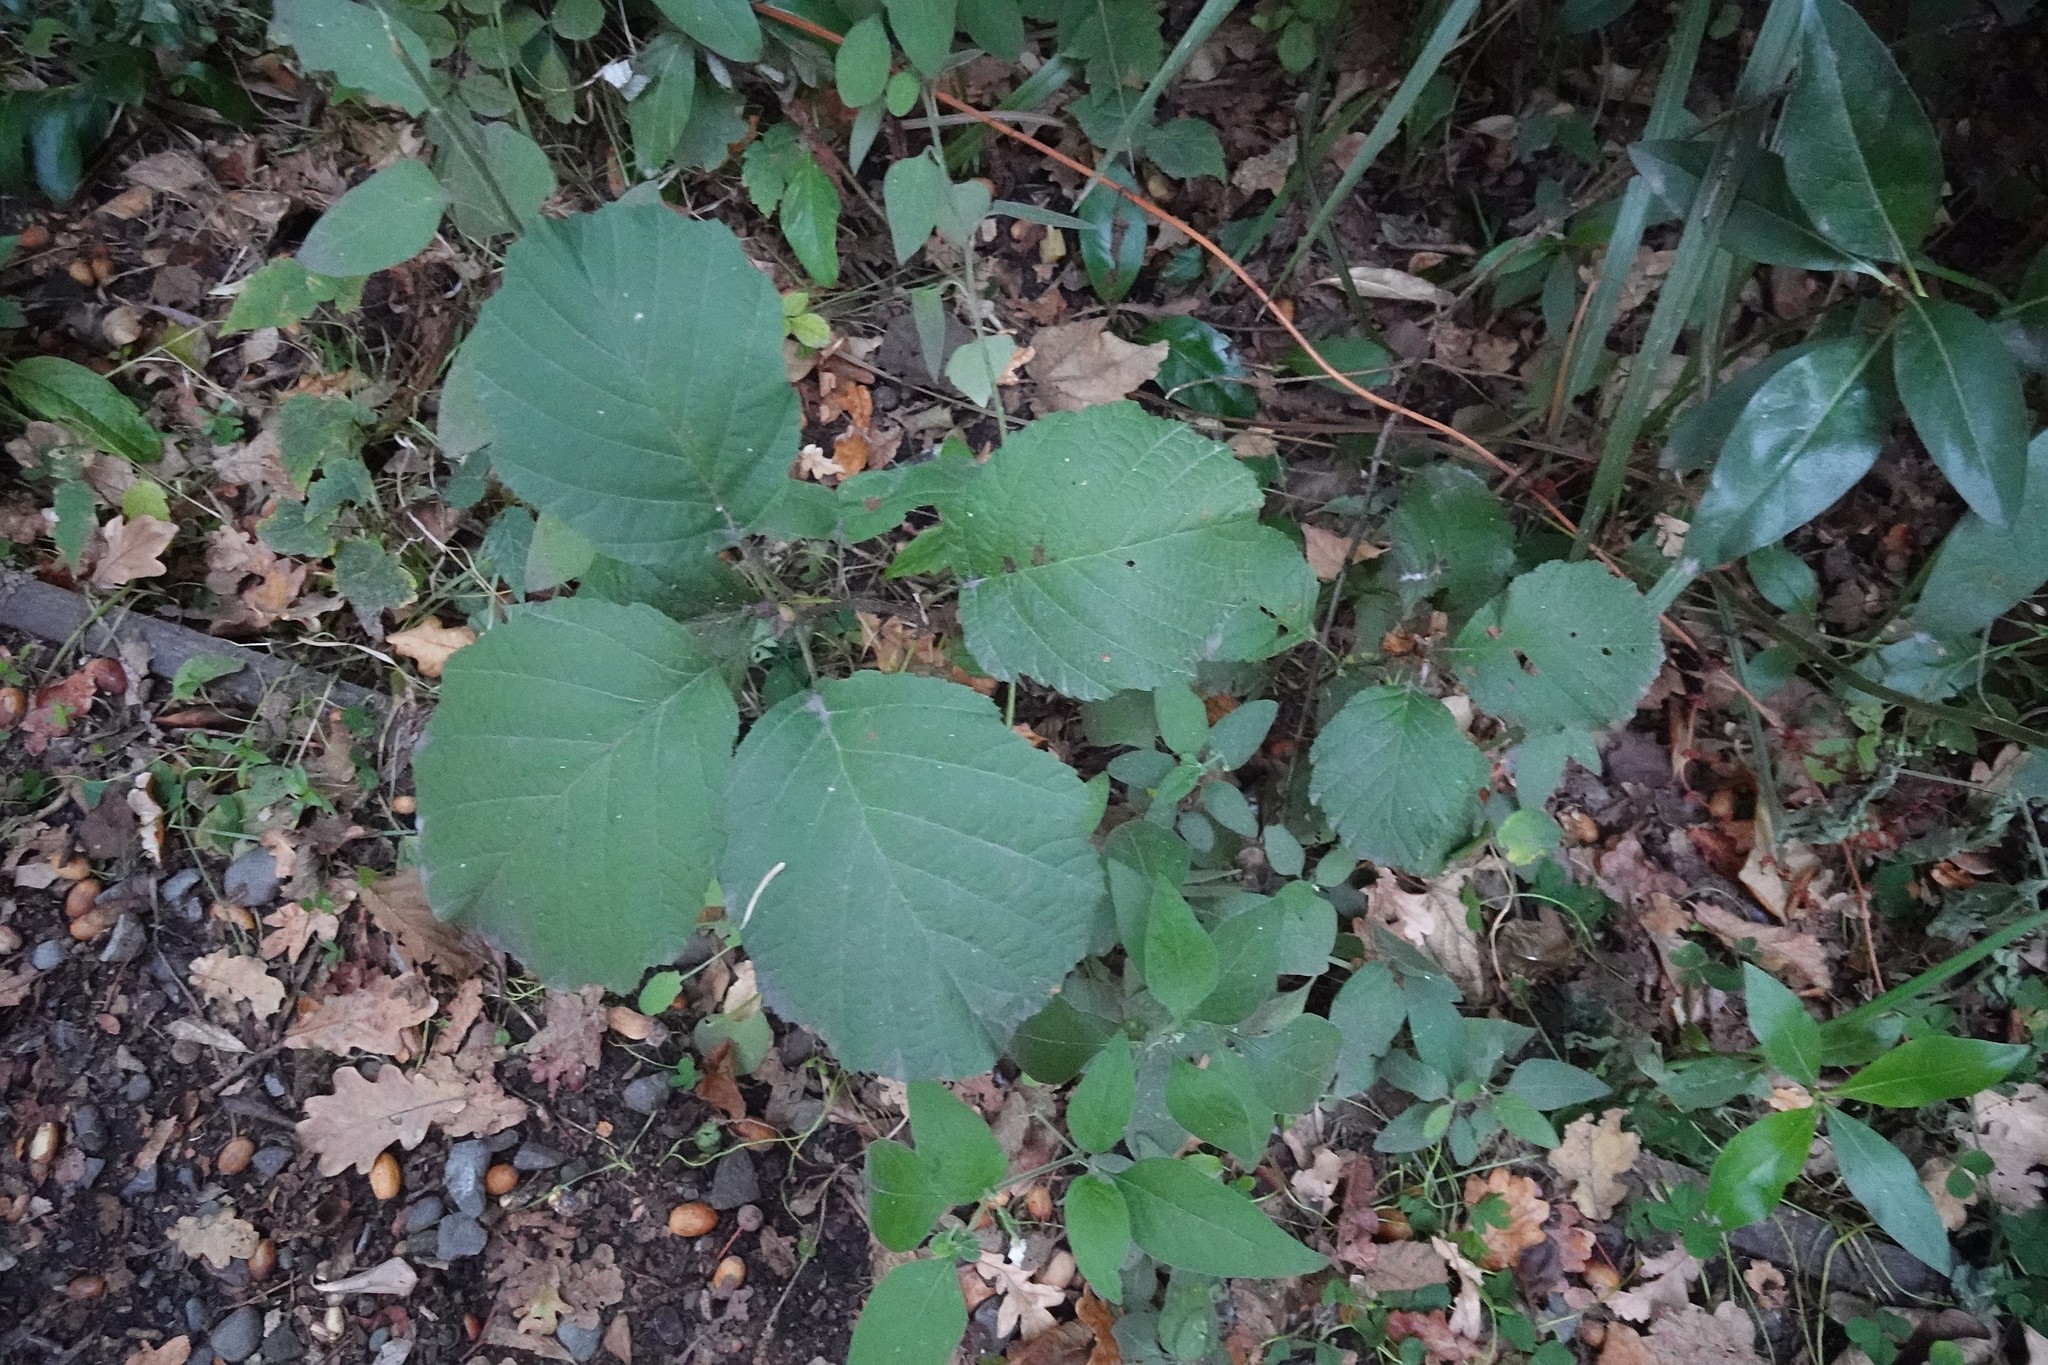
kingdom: Plantae
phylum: Tracheophyta
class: Magnoliopsida
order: Fagales
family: Betulaceae
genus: Alnus
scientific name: Alnus glutinosa
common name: Black alder
